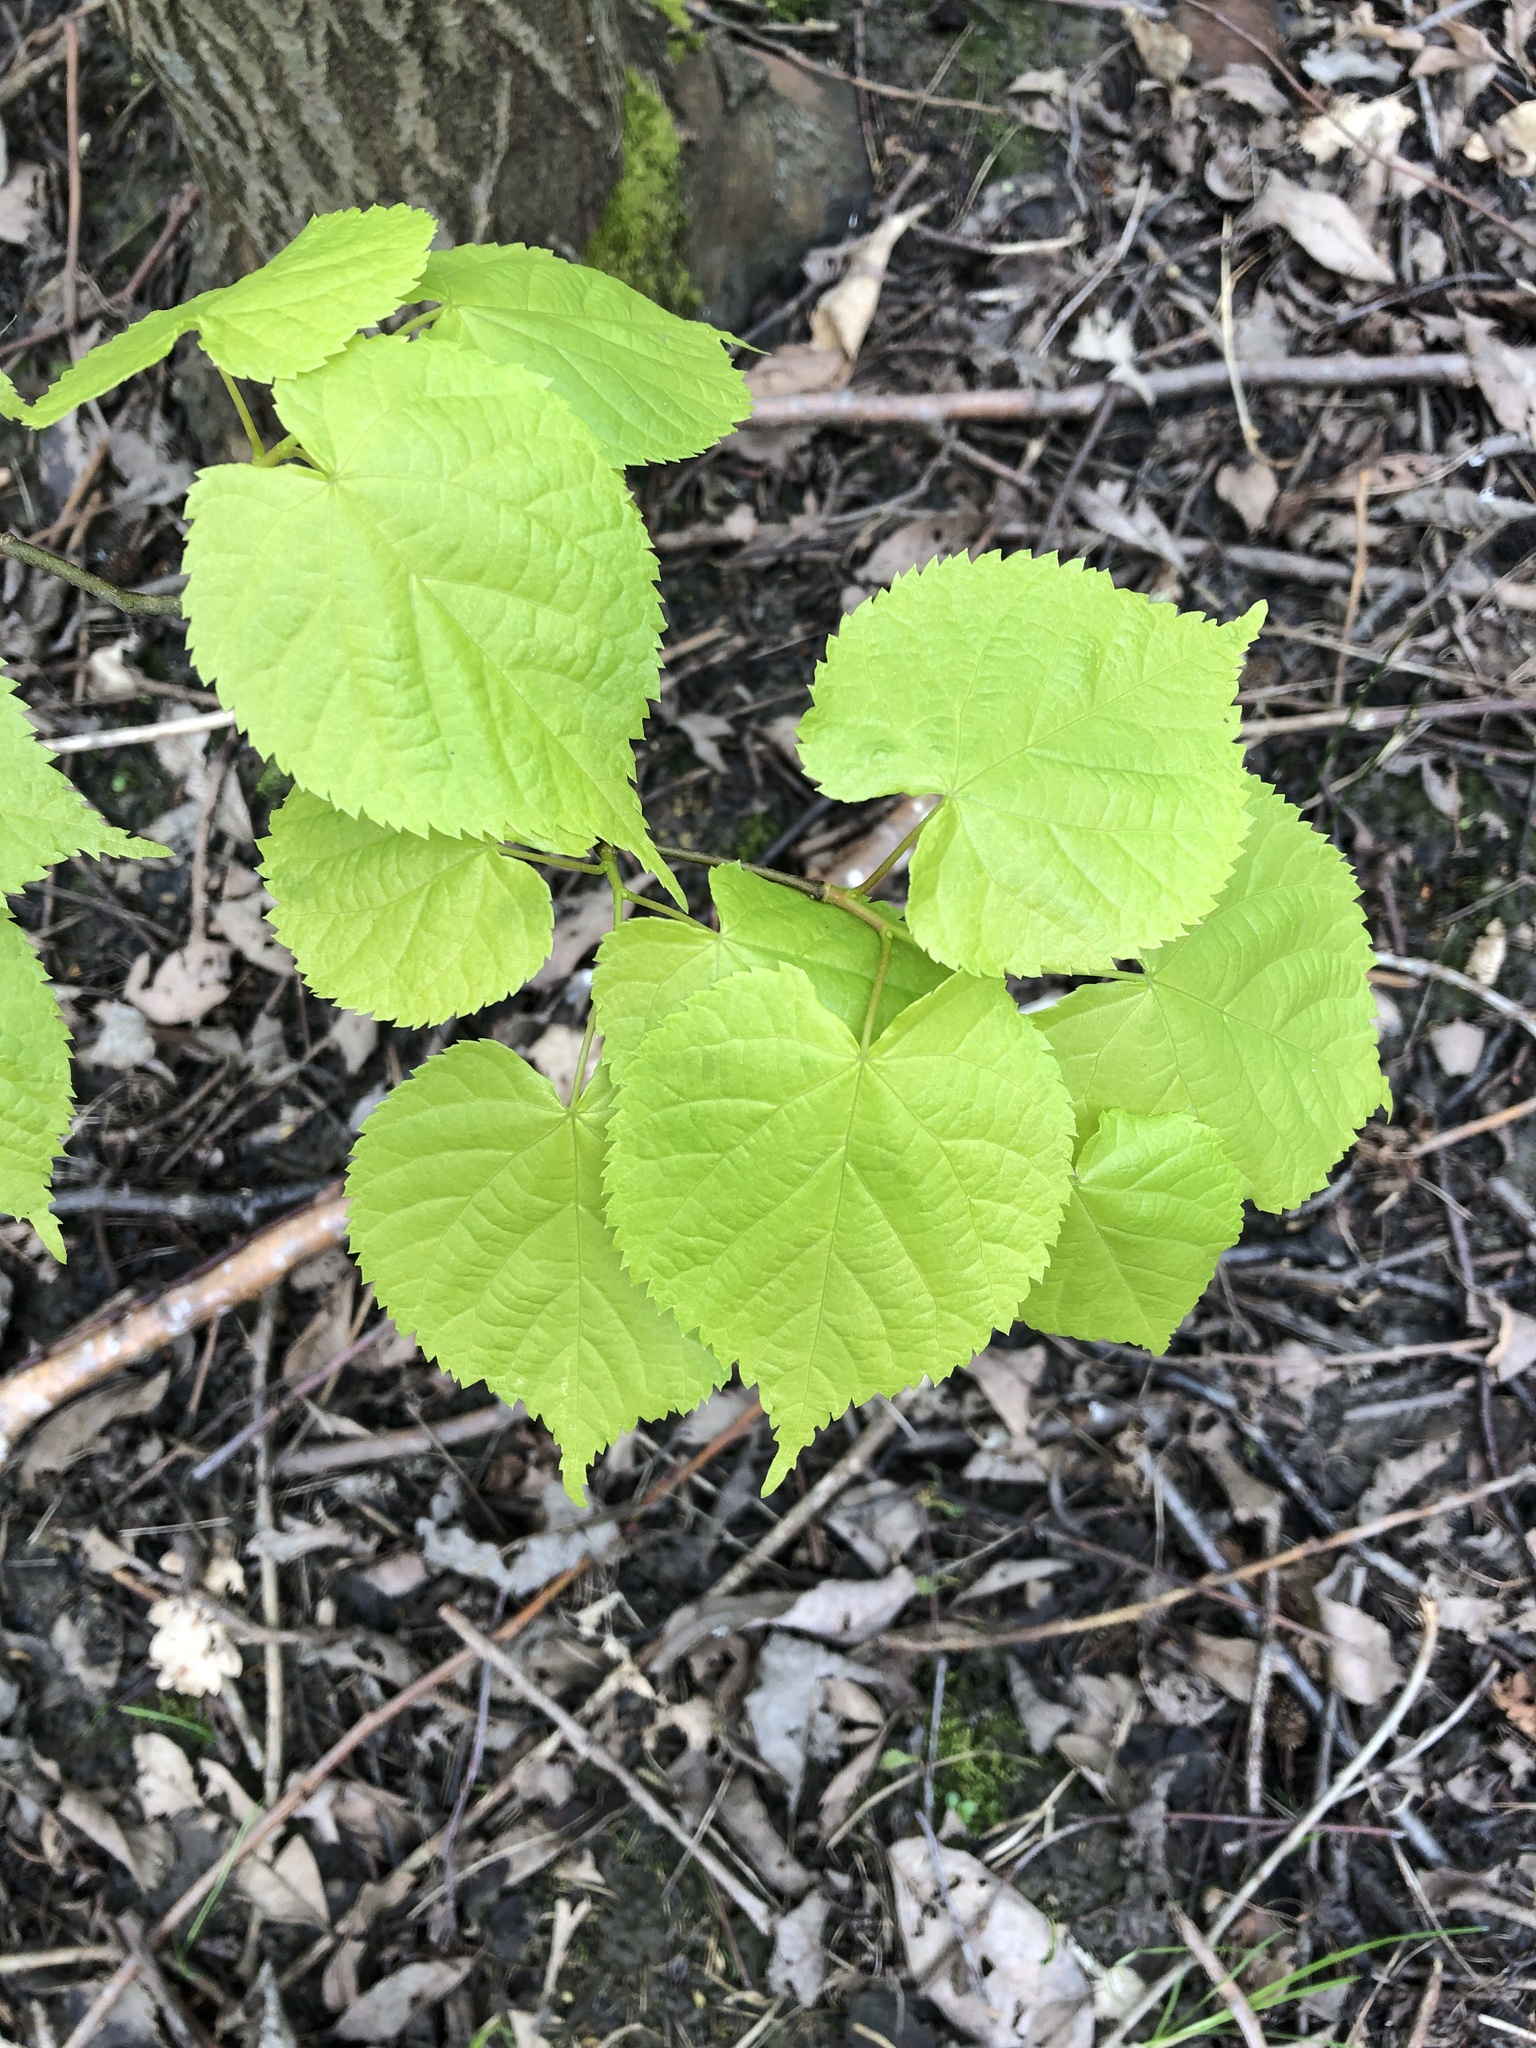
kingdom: Plantae
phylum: Tracheophyta
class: Magnoliopsida
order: Malvales
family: Malvaceae
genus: Tilia
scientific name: Tilia cordata
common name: Small-leaved lime
